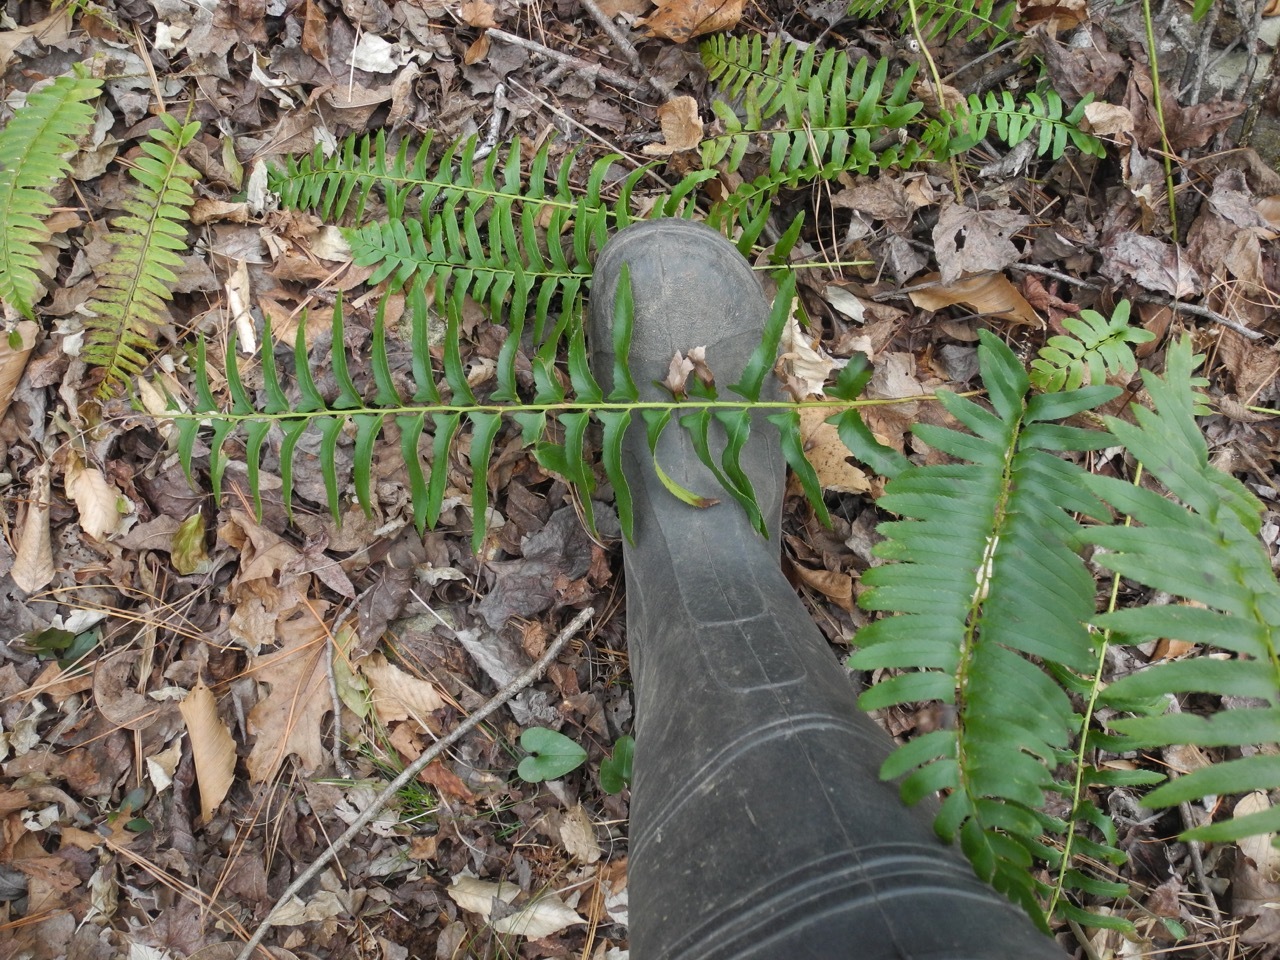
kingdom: Plantae
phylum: Tracheophyta
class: Polypodiopsida
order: Polypodiales
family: Dryopteridaceae
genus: Polystichum
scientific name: Polystichum acrostichoides
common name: Christmas fern
